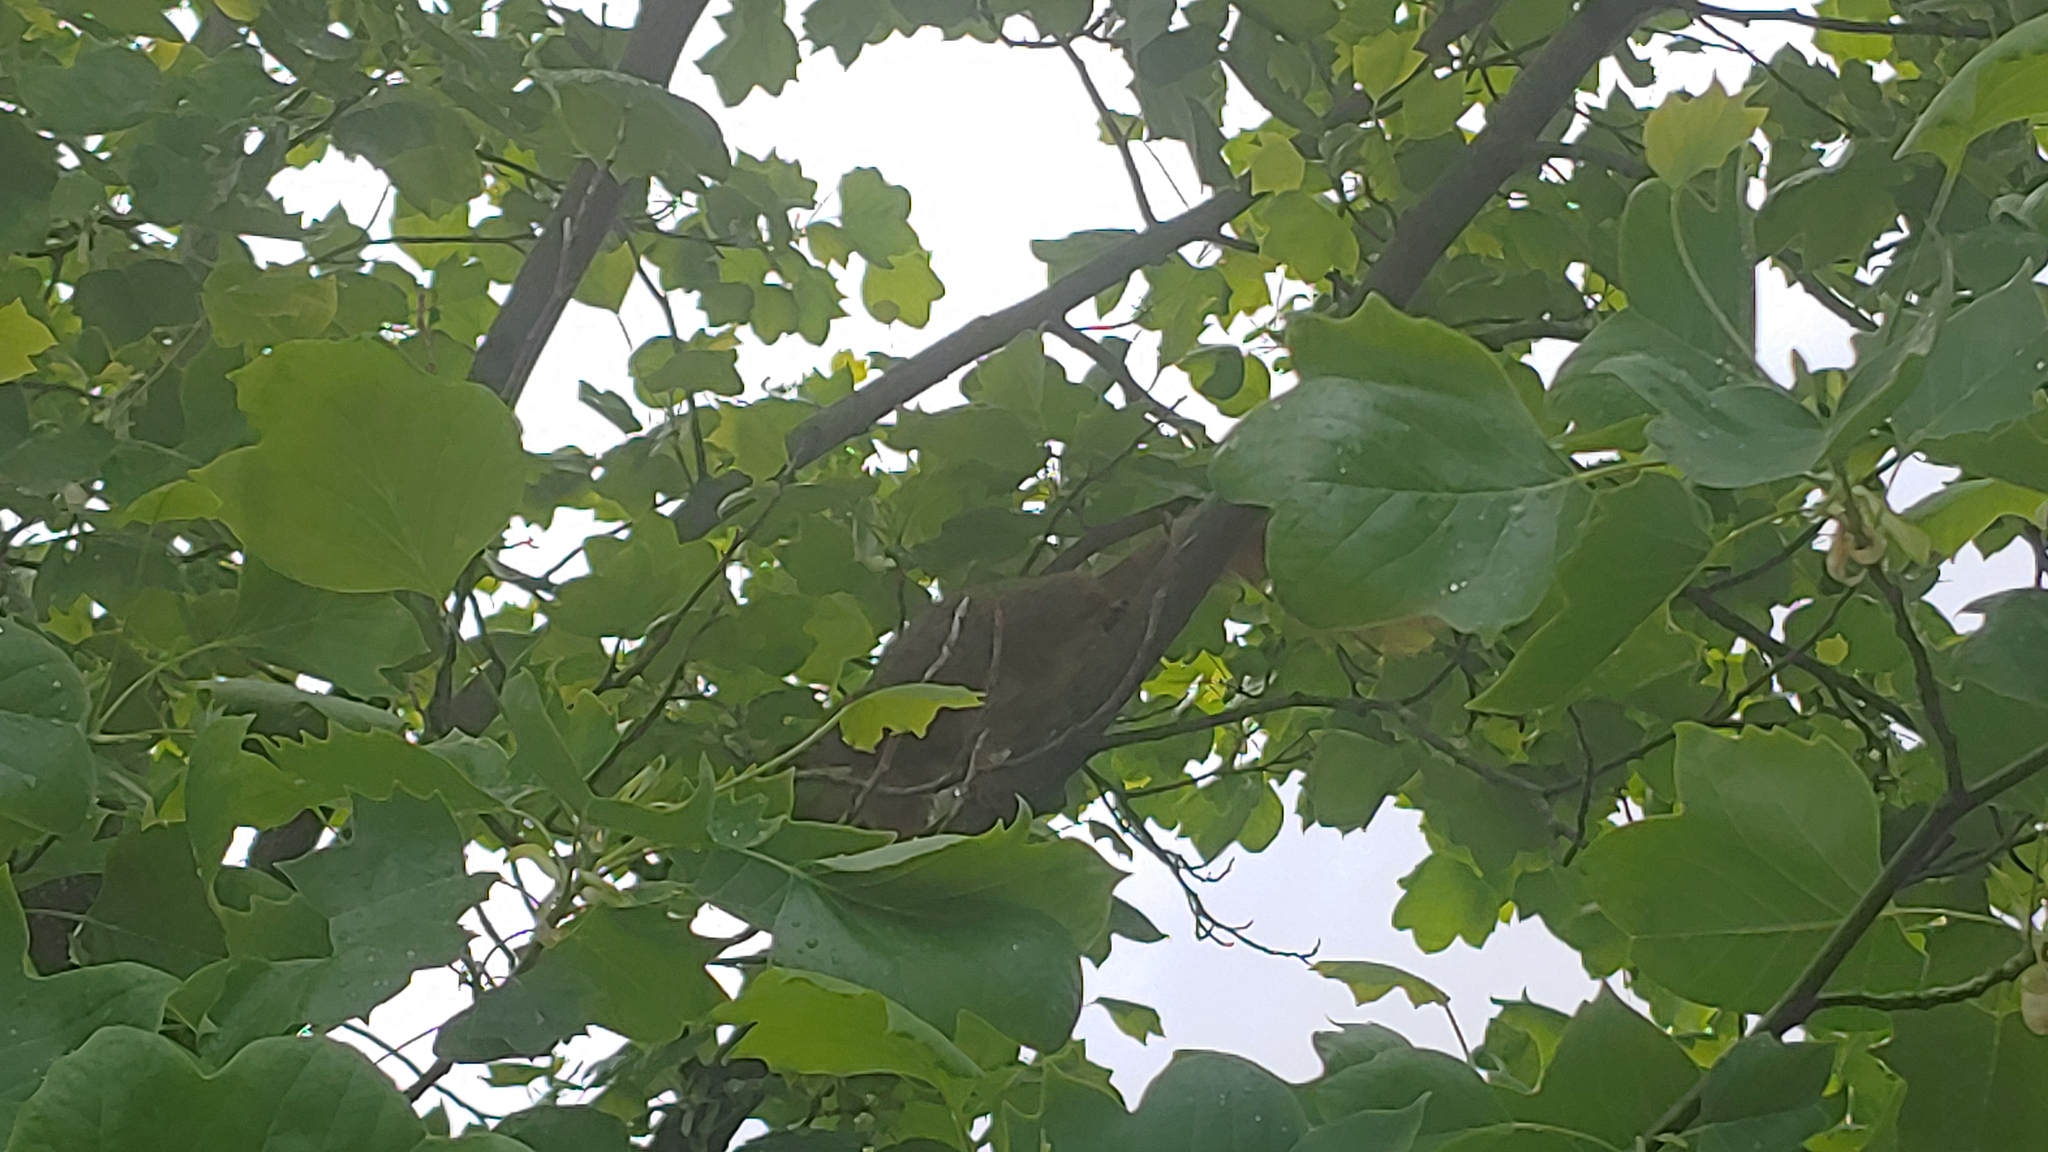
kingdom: Animalia
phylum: Chordata
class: Mammalia
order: Rodentia
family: Sciuridae
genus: Sciurus
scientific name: Sciurus niger
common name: Fox squirrel
